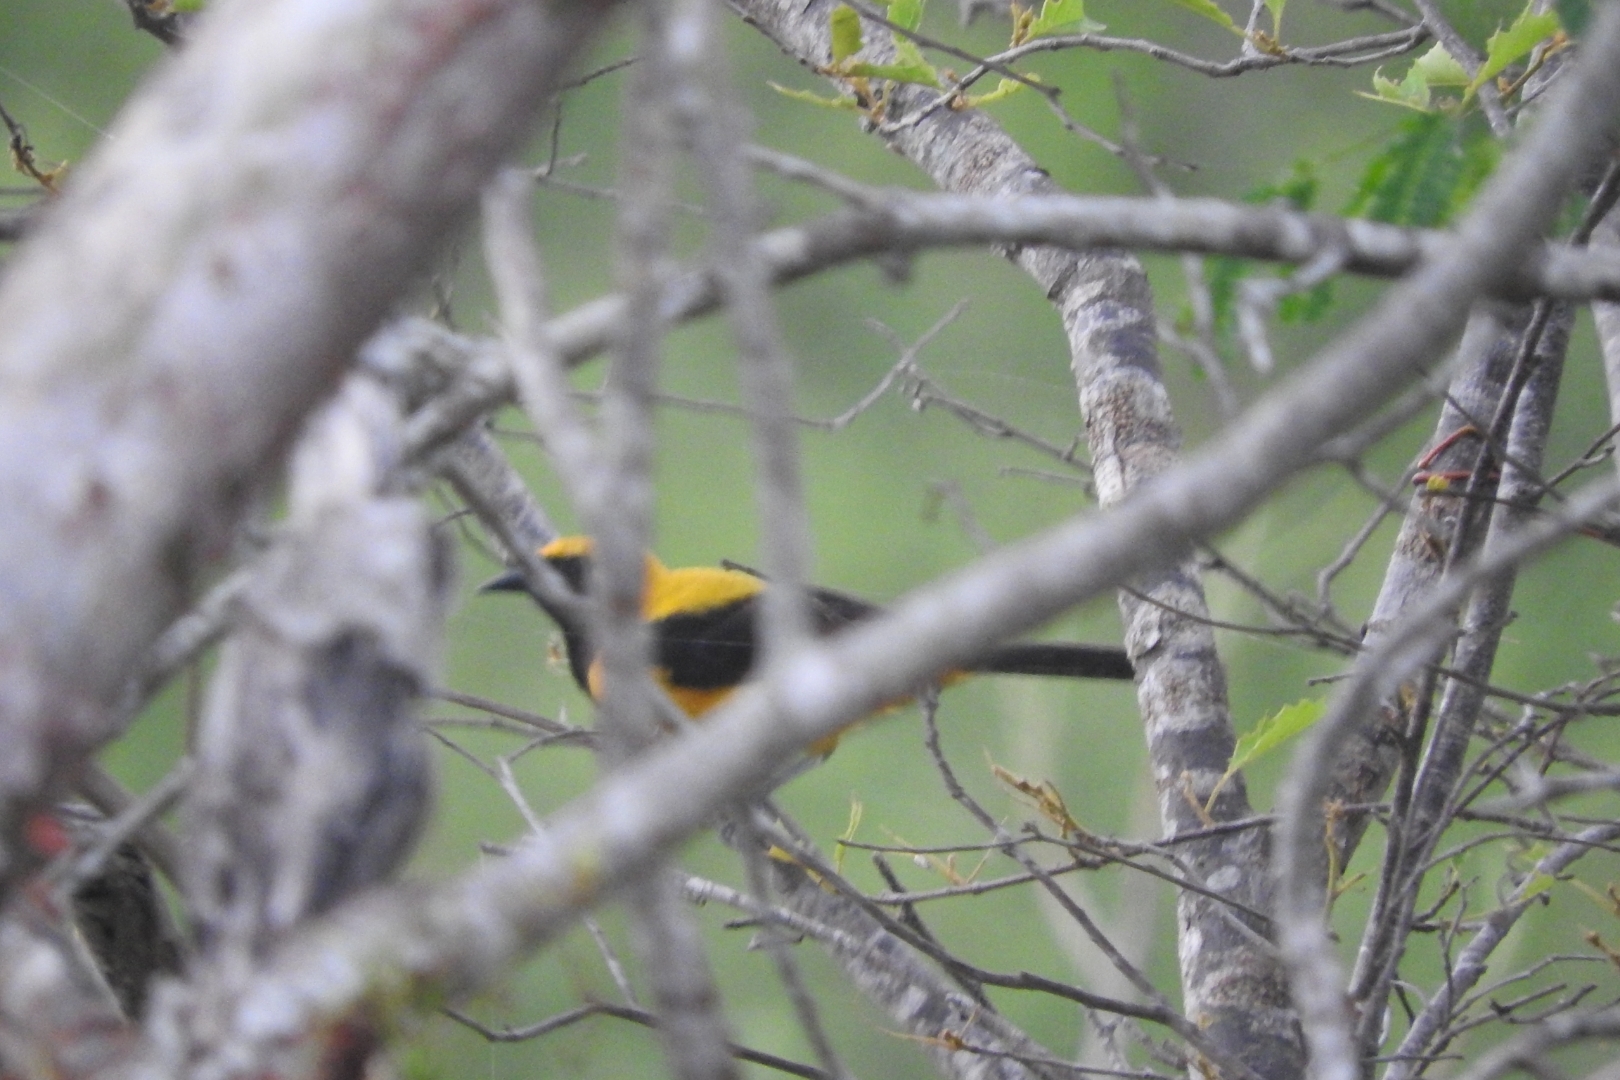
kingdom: Animalia
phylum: Chordata
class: Aves
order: Passeriformes
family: Icteridae
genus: Icterus
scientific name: Icterus chrysater
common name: Yellow-backed oriole
